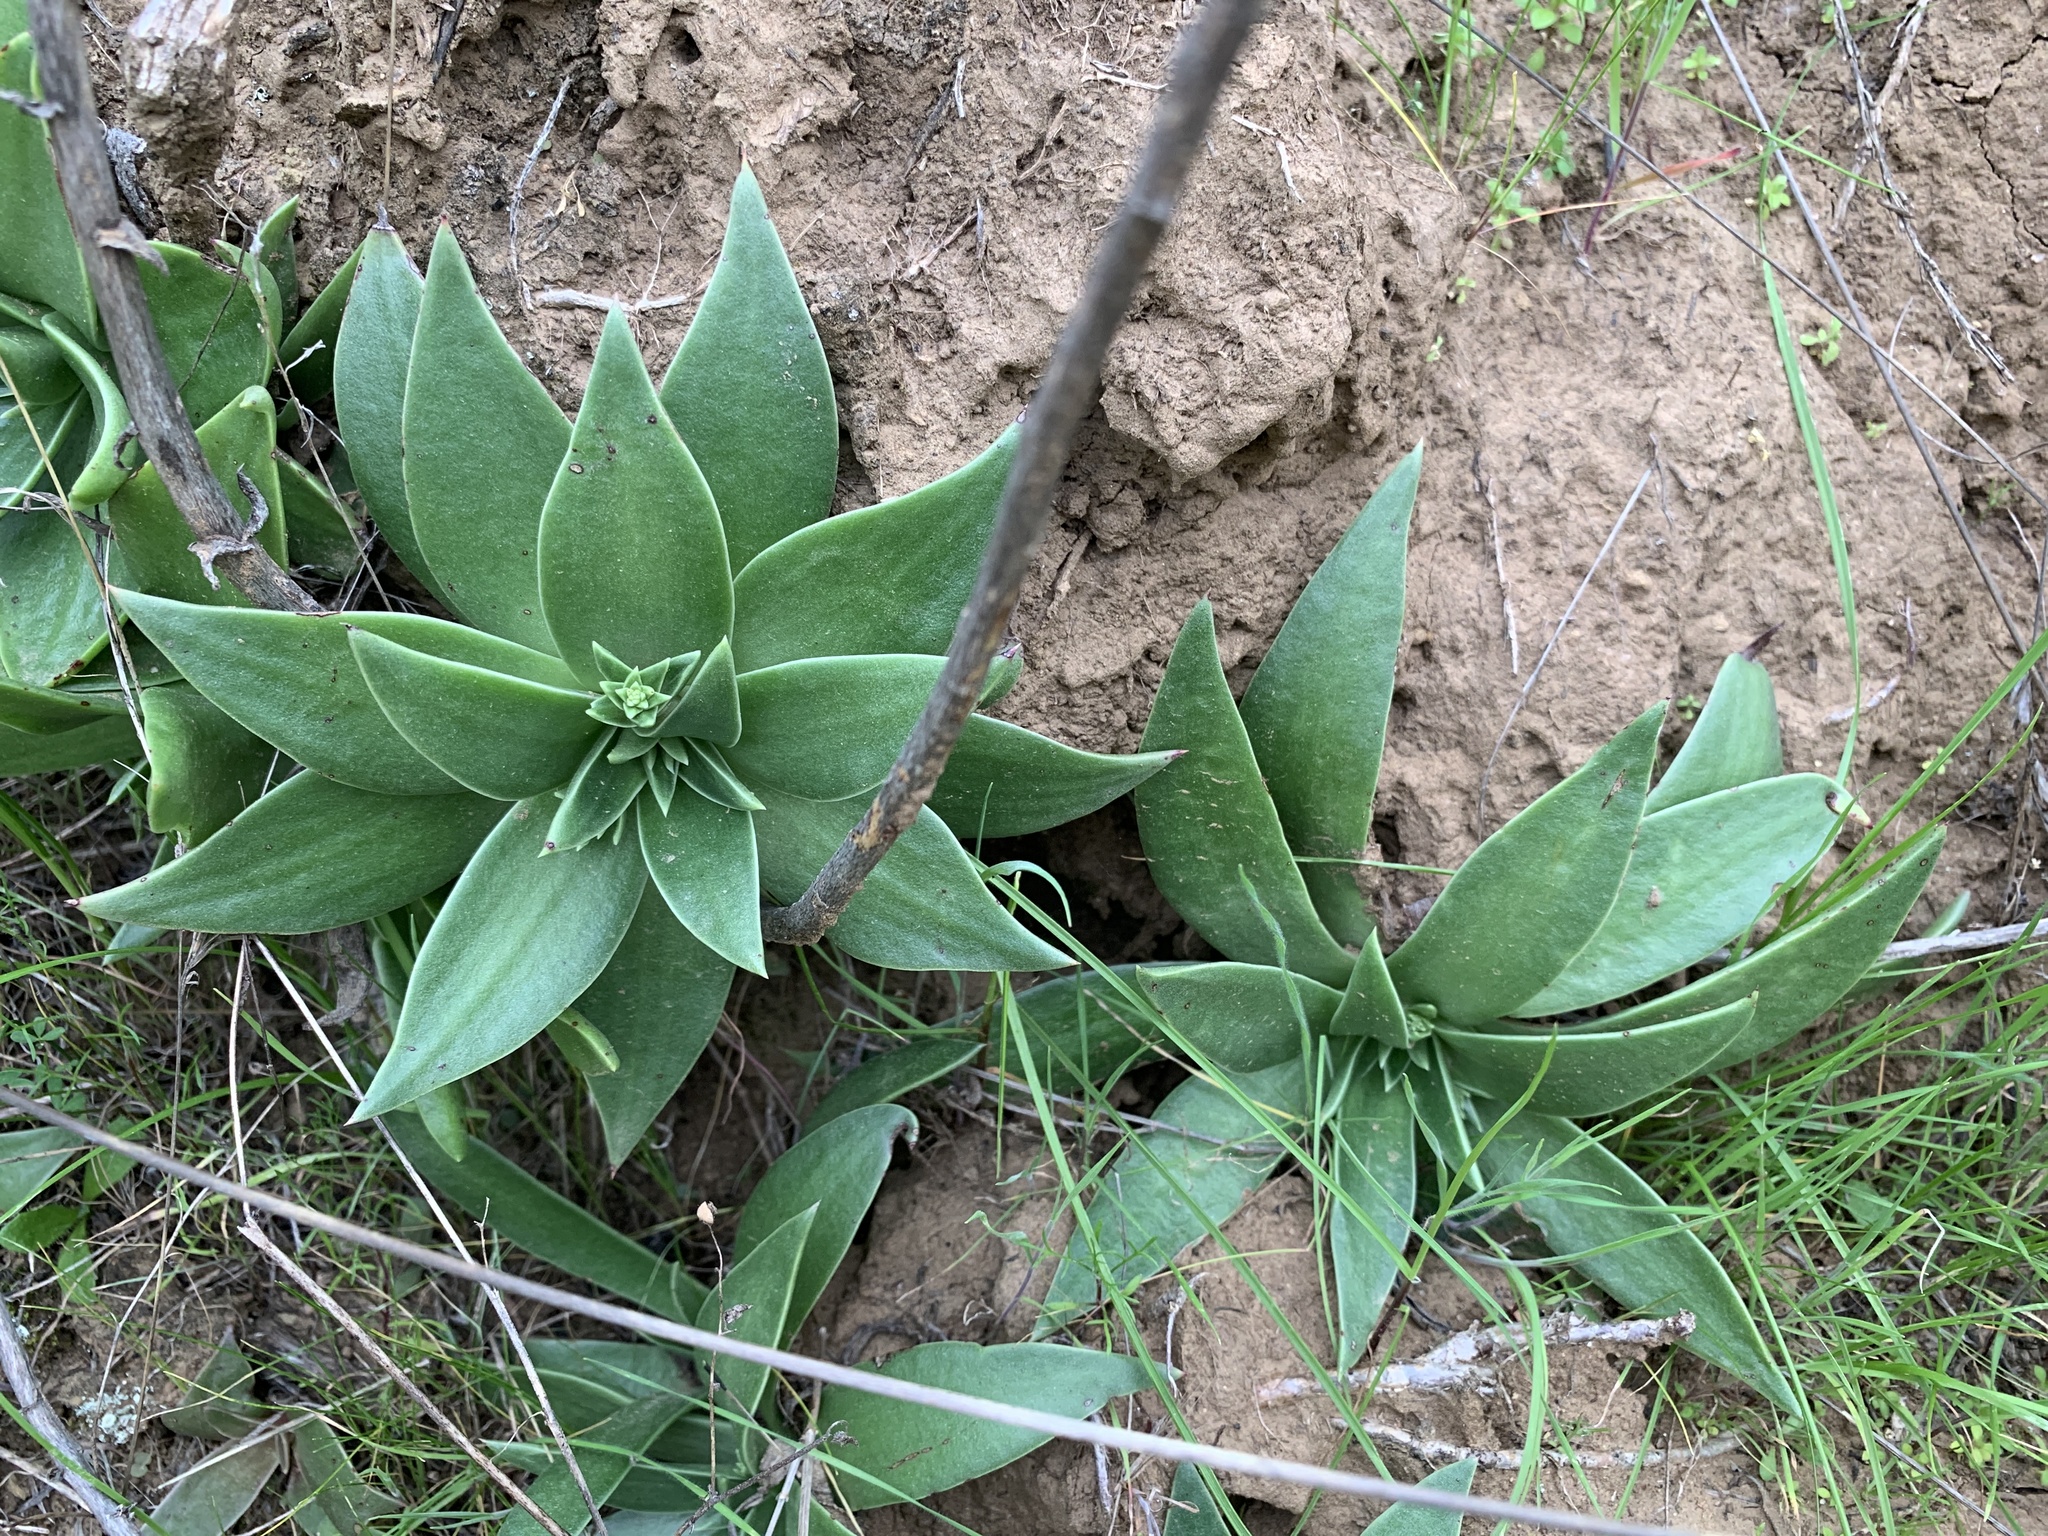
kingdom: Plantae
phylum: Tracheophyta
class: Magnoliopsida
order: Saxifragales
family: Crassulaceae
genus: Dudleya
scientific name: Dudleya lanceolata
